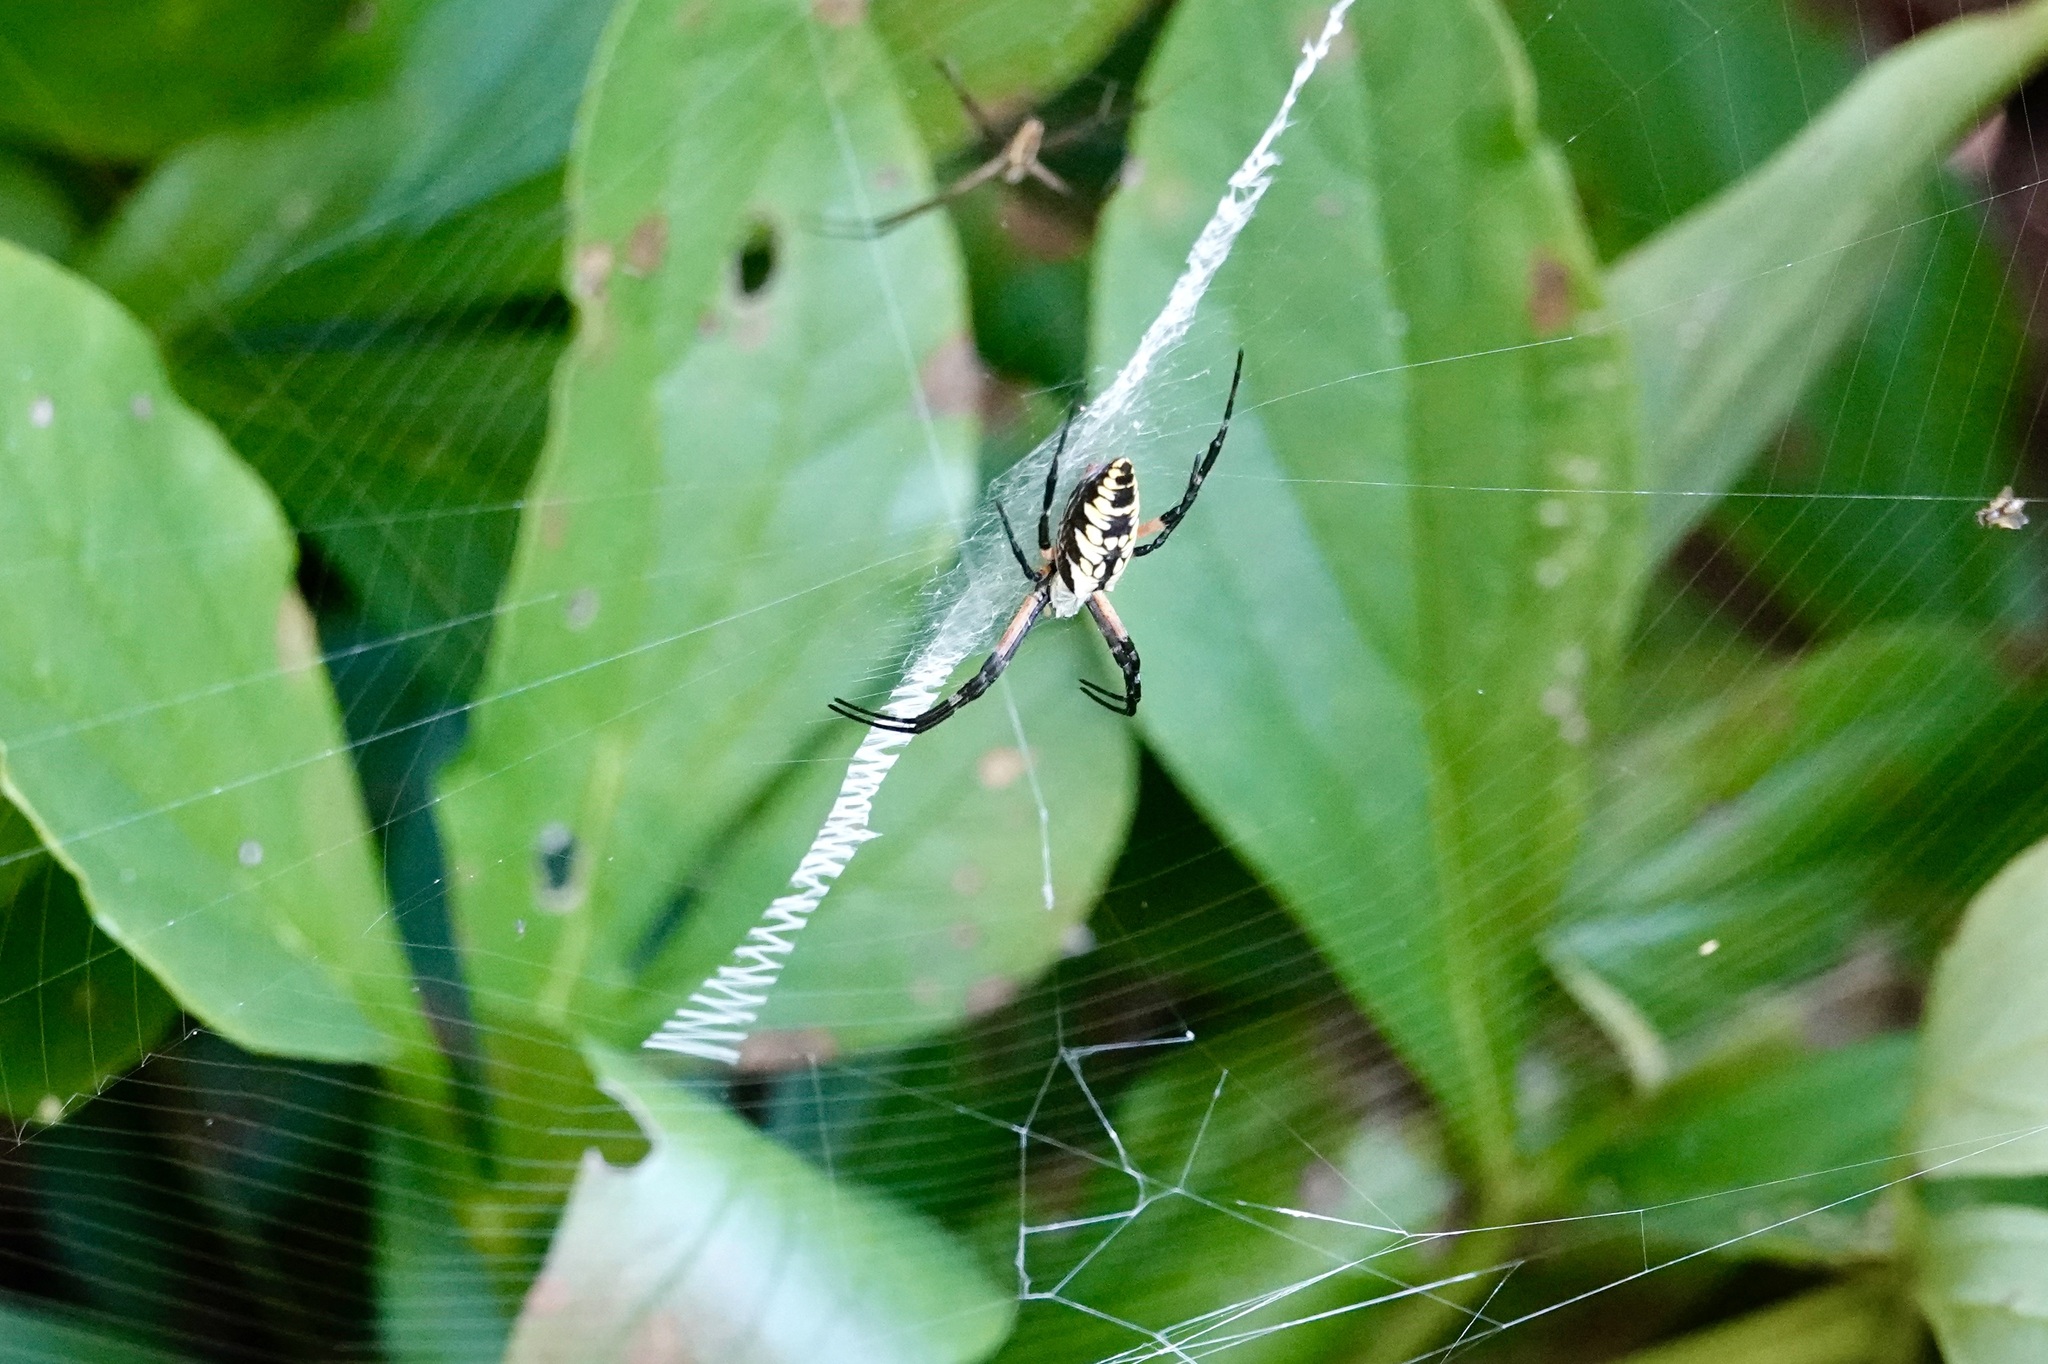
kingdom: Animalia
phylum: Arthropoda
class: Arachnida
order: Araneae
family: Araneidae
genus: Argiope
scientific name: Argiope aurantia
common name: Orb weavers
